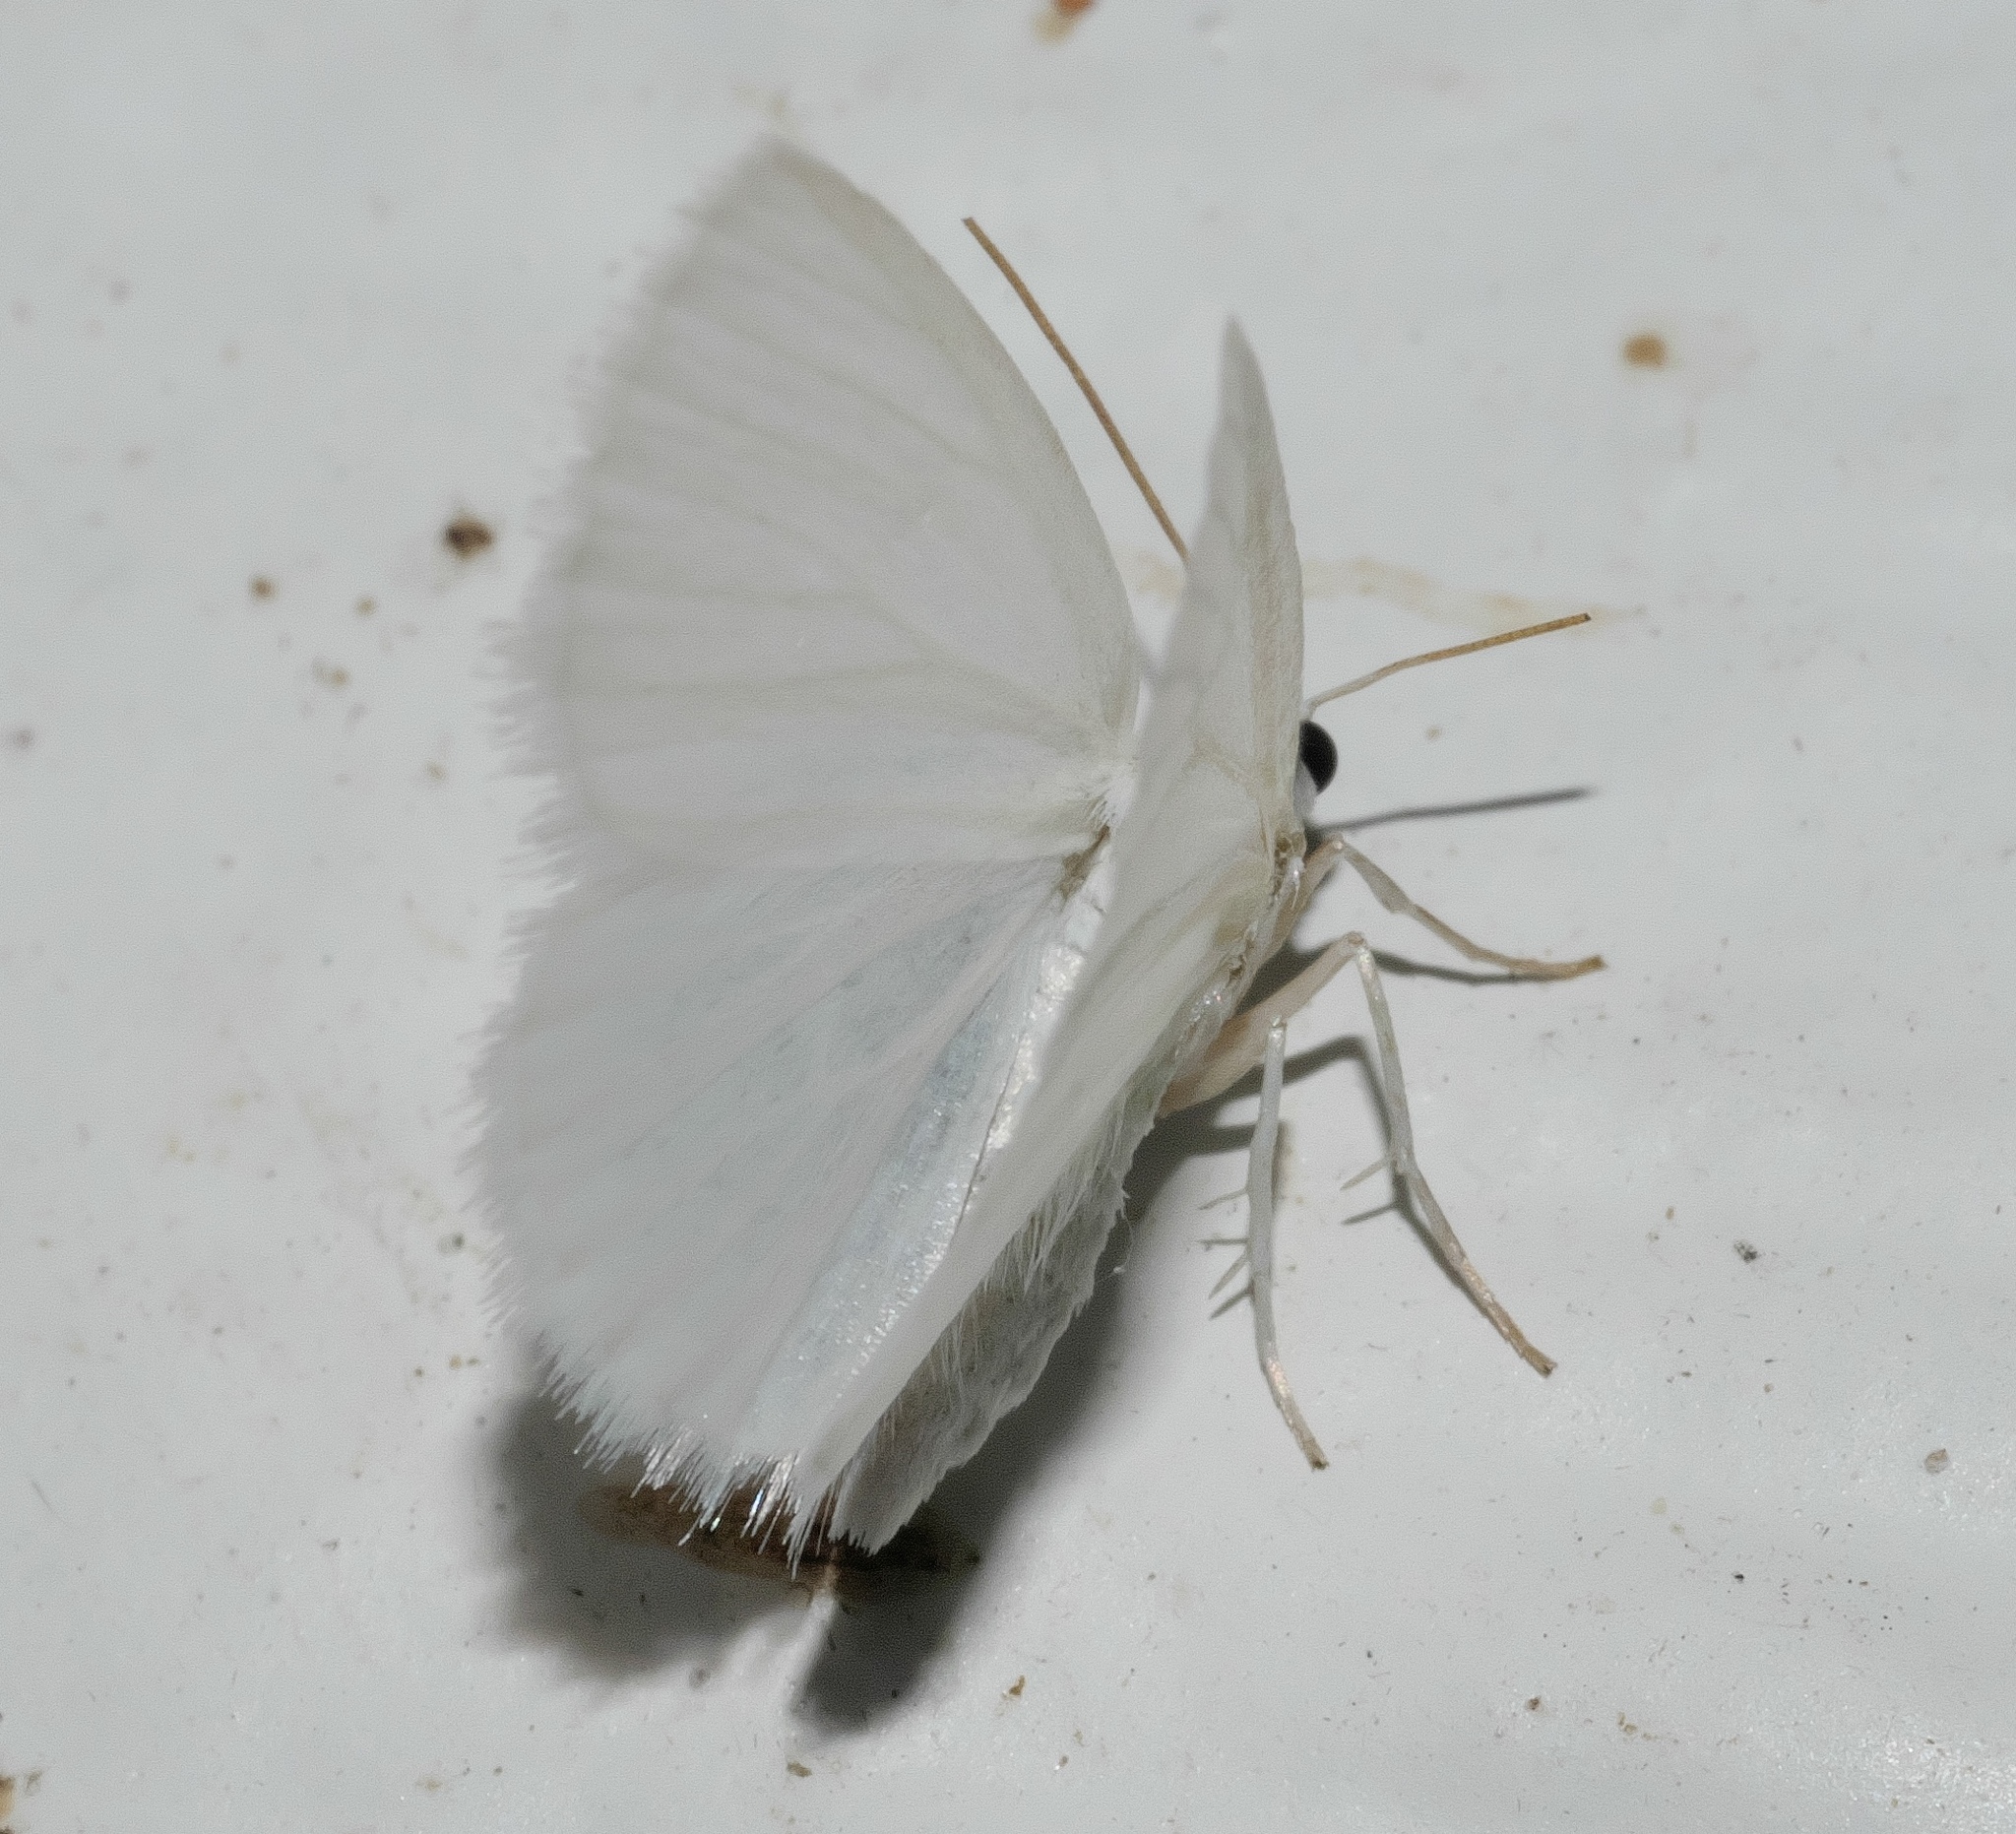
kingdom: Animalia
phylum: Arthropoda
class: Insecta
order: Lepidoptera
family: Geometridae
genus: Lomographa
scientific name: Lomographa vestaliata
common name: White spring moth
